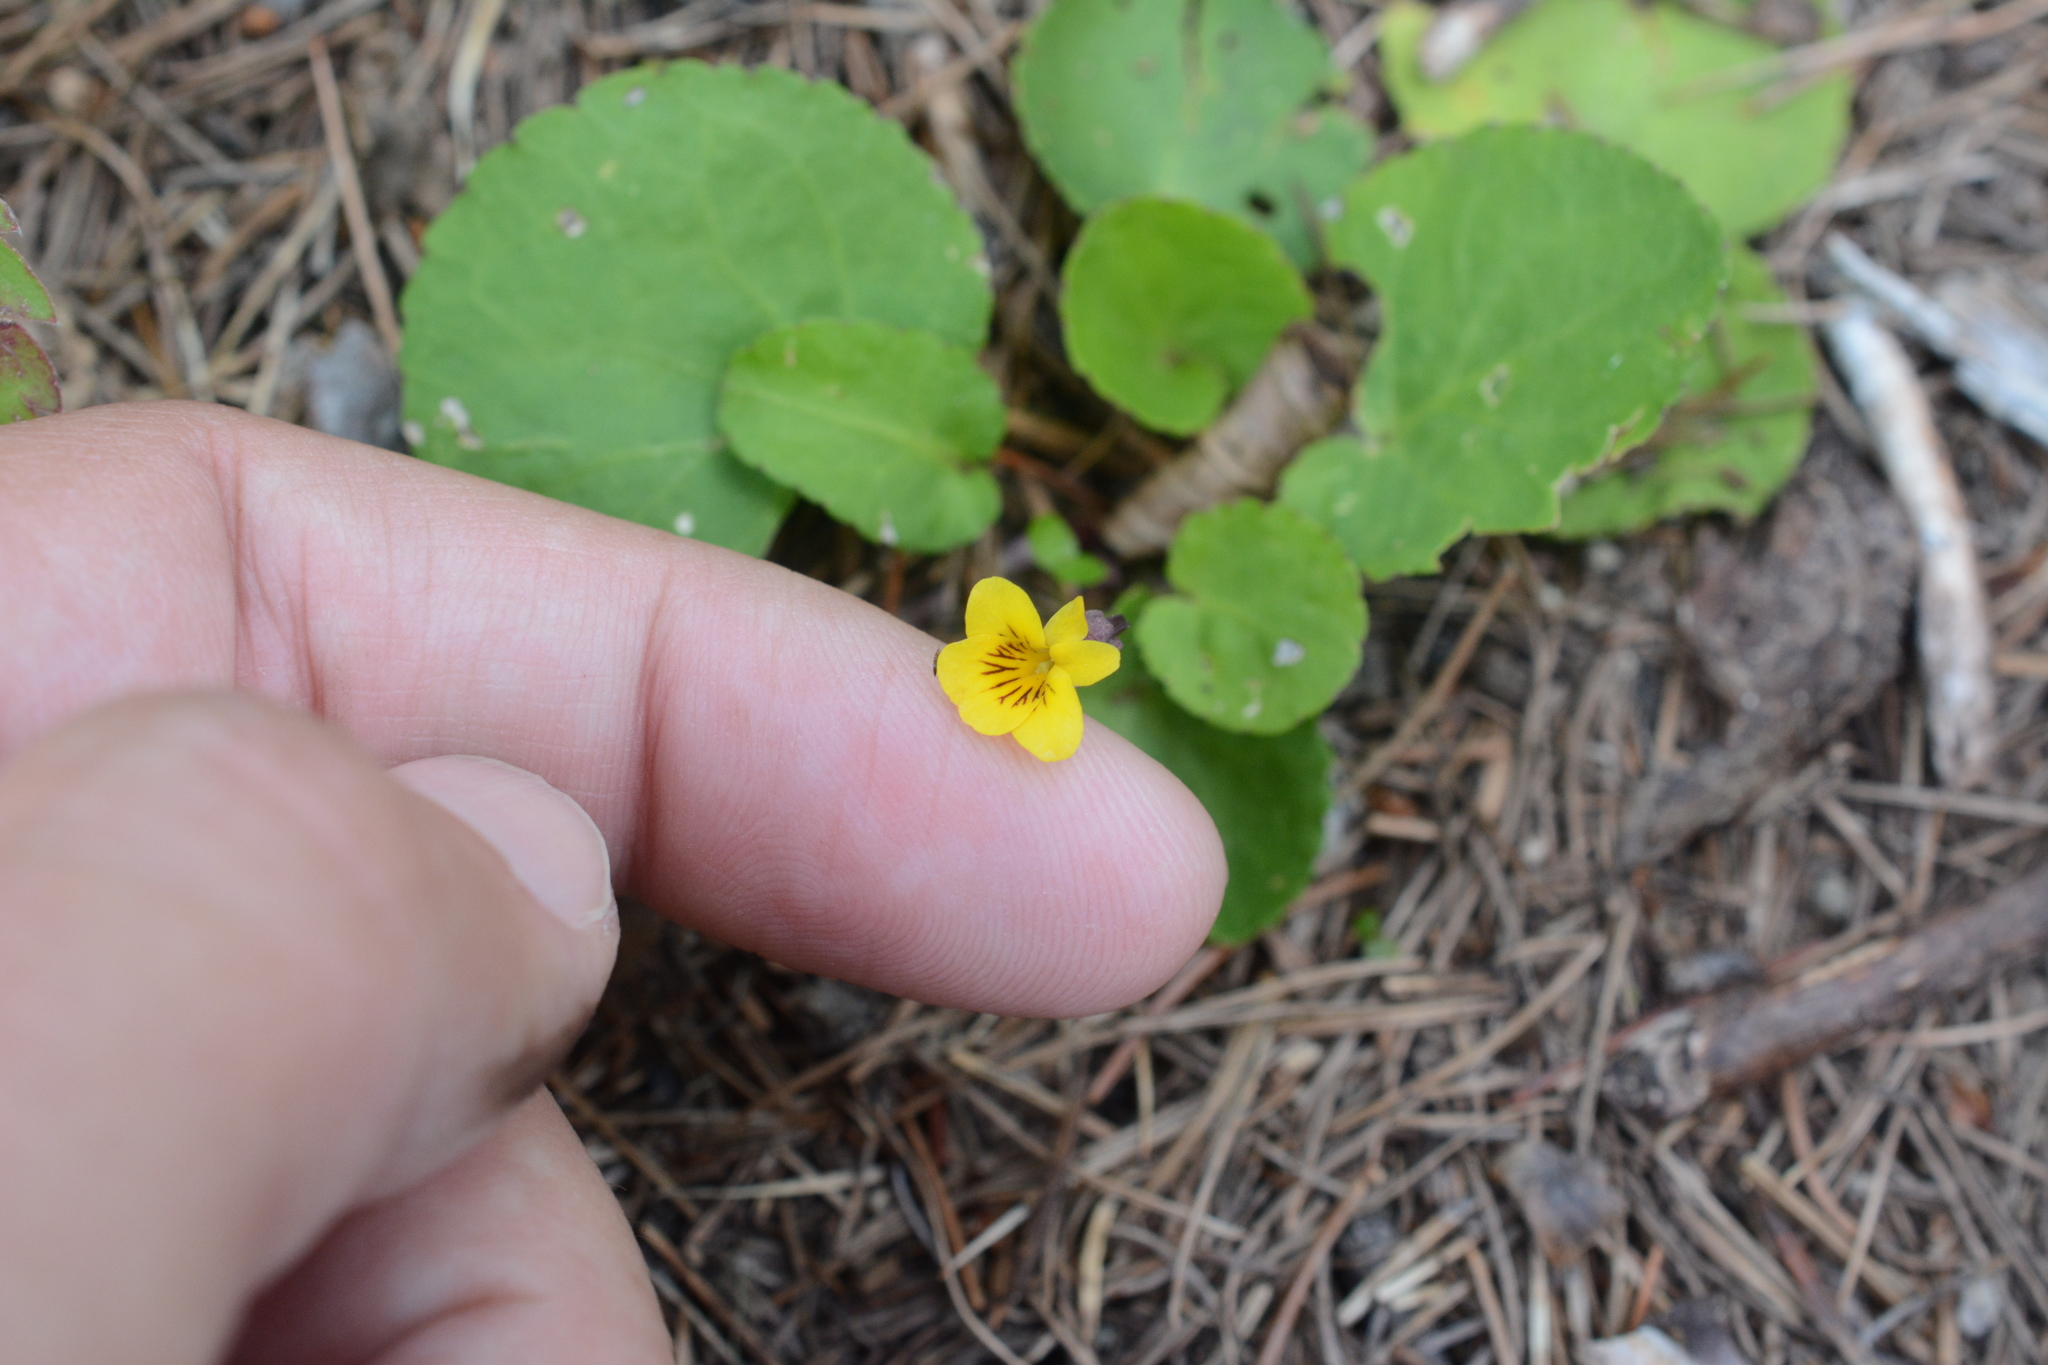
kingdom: Plantae
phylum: Tracheophyta
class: Magnoliopsida
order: Malpighiales
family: Violaceae
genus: Viola
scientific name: Viola orbiculata
